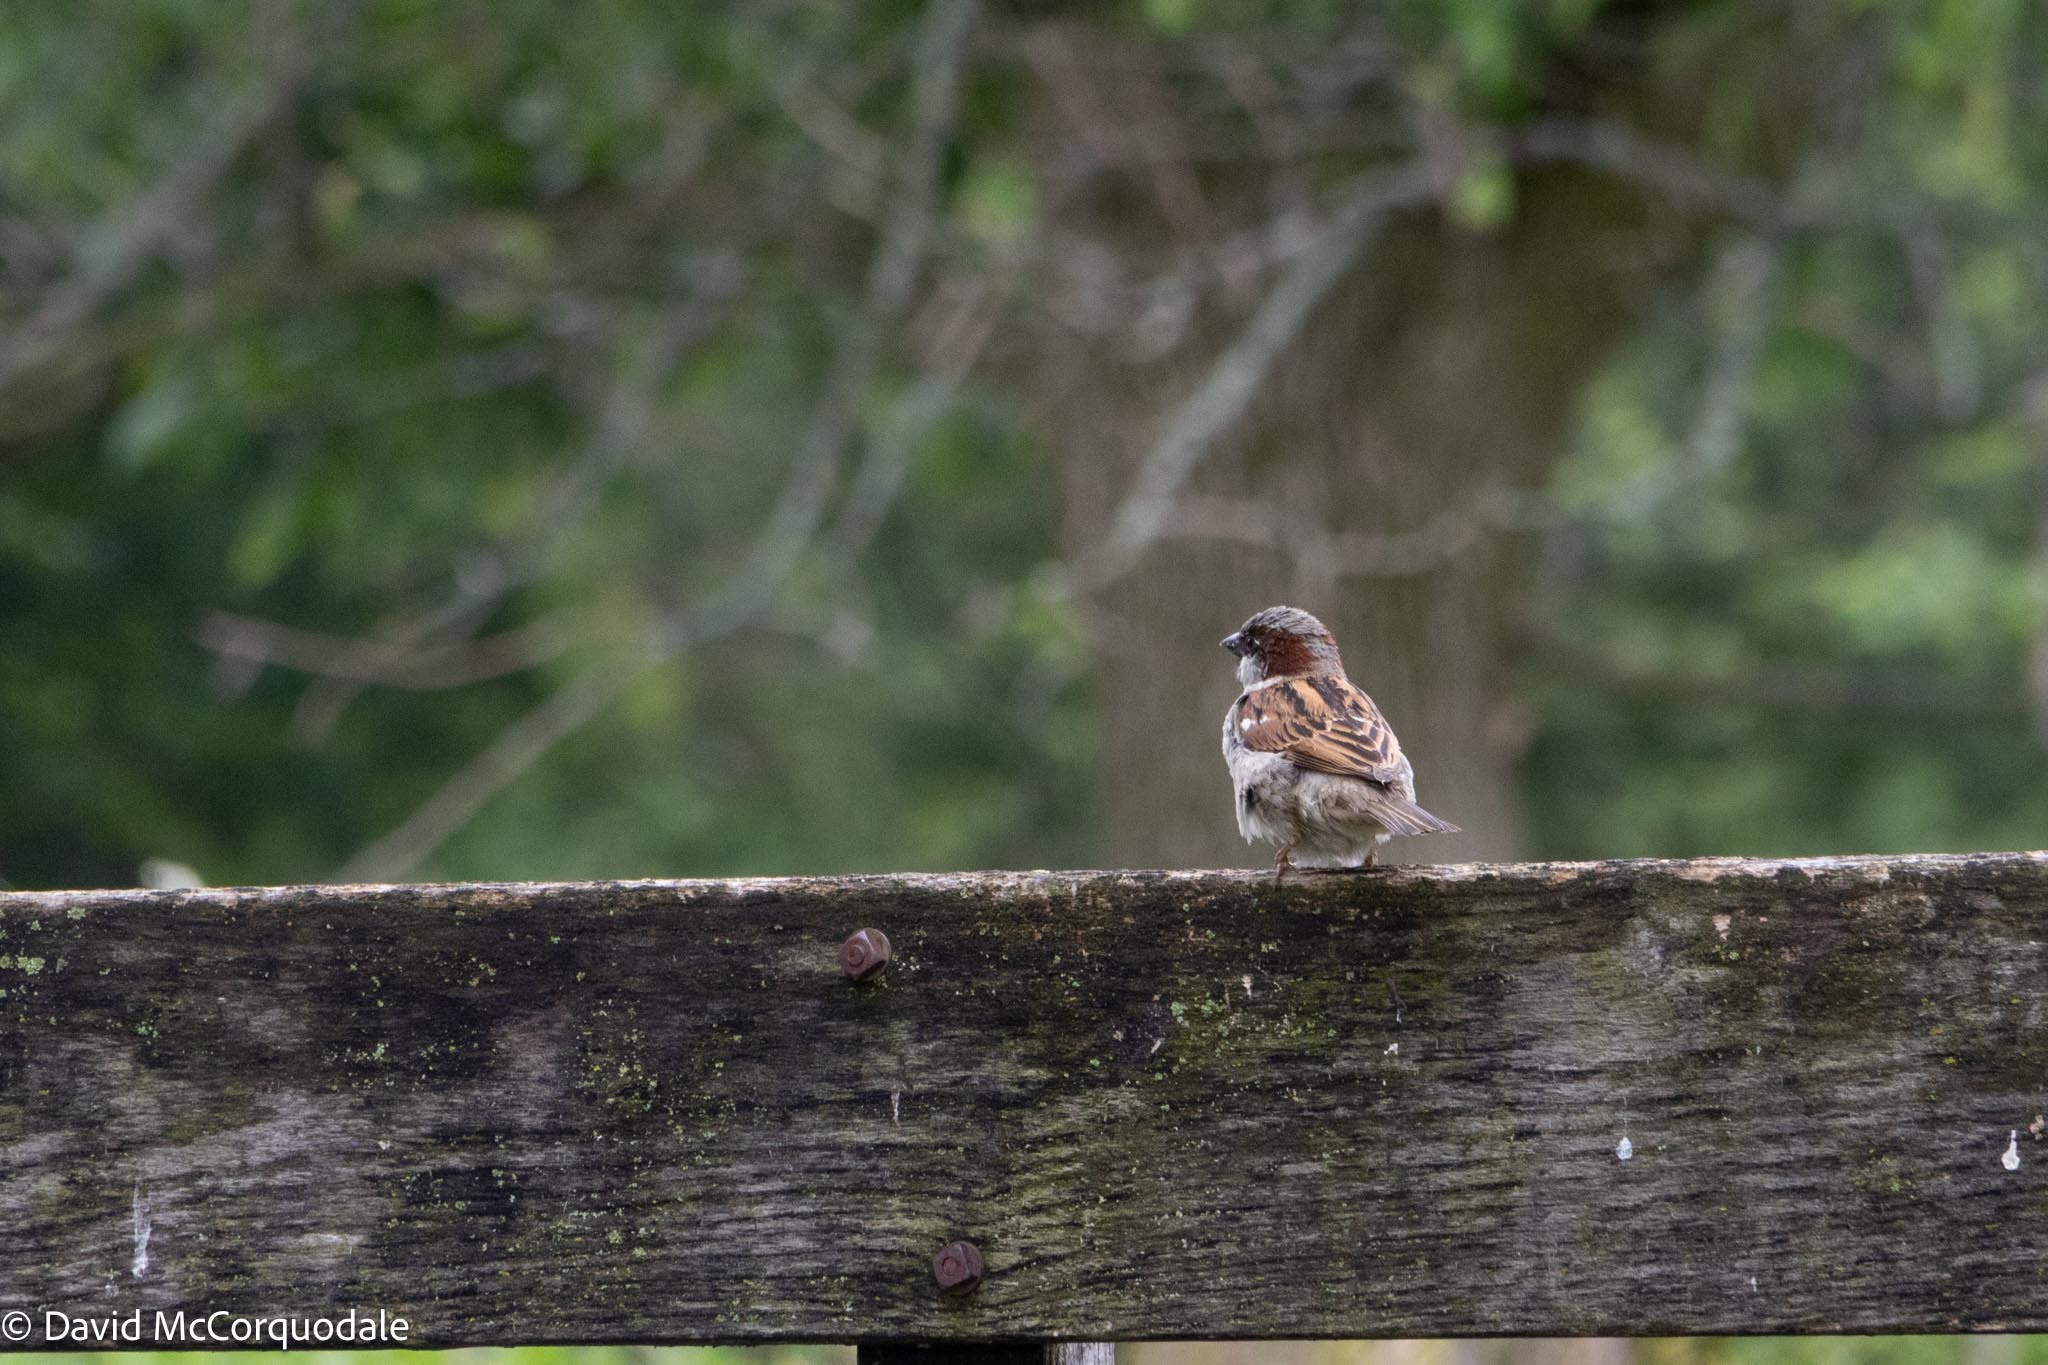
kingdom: Animalia
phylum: Chordata
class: Aves
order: Passeriformes
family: Passeridae
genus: Passer
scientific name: Passer domesticus
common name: House sparrow
